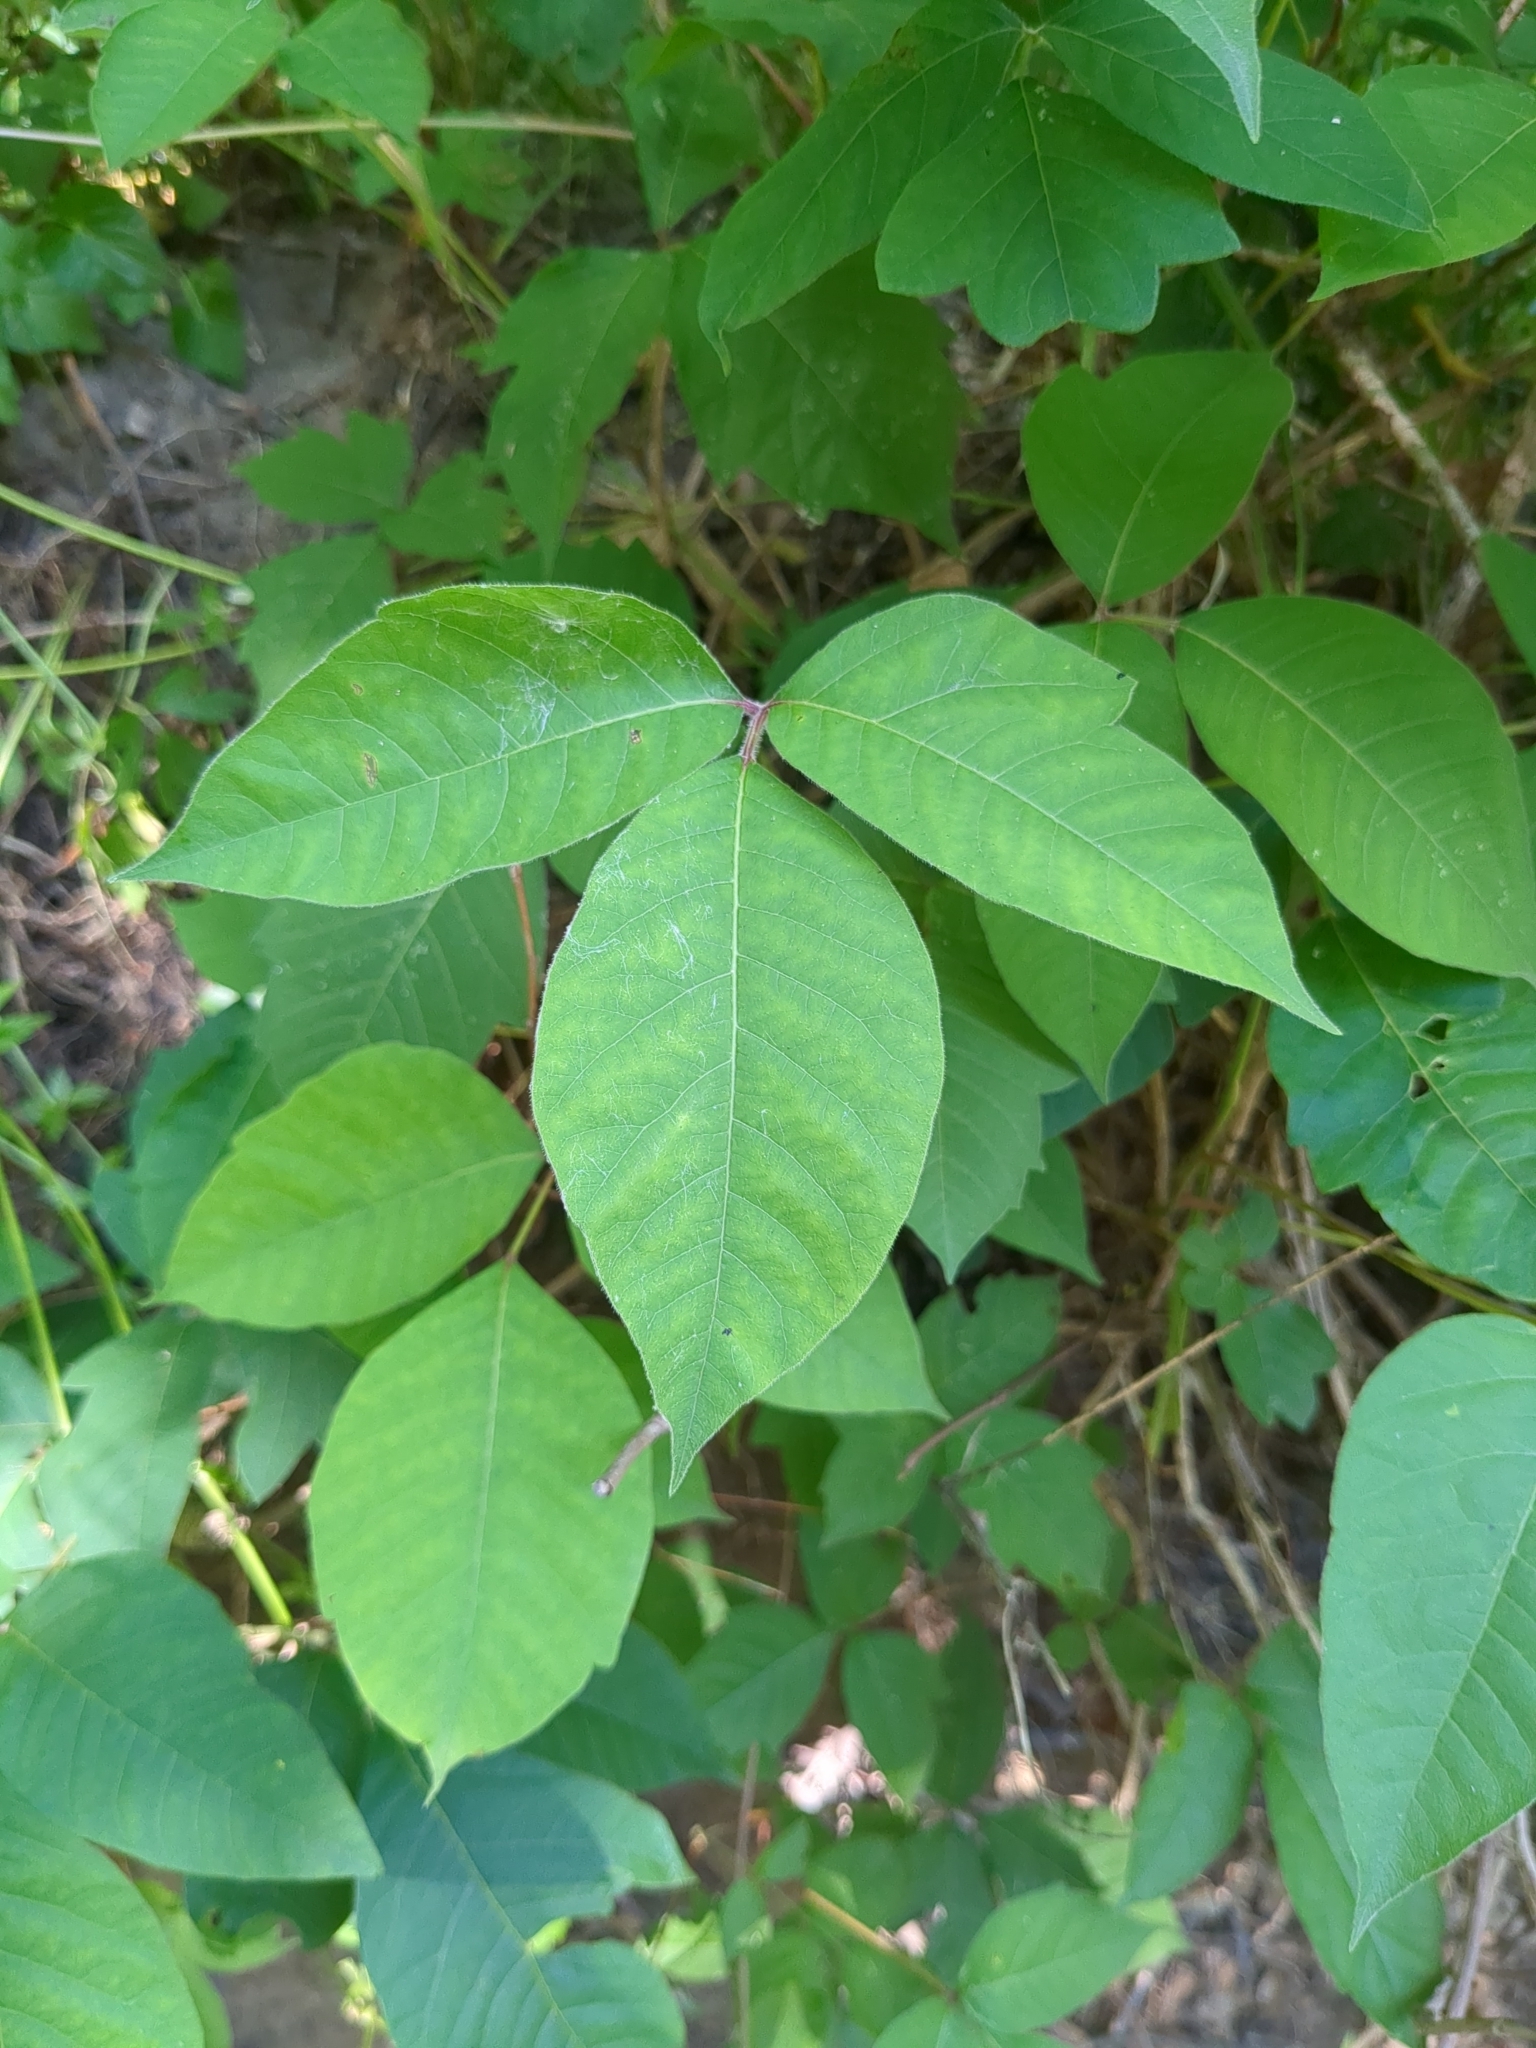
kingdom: Plantae
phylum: Tracheophyta
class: Magnoliopsida
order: Sapindales
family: Anacardiaceae
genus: Toxicodendron
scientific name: Toxicodendron radicans
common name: Poison ivy
